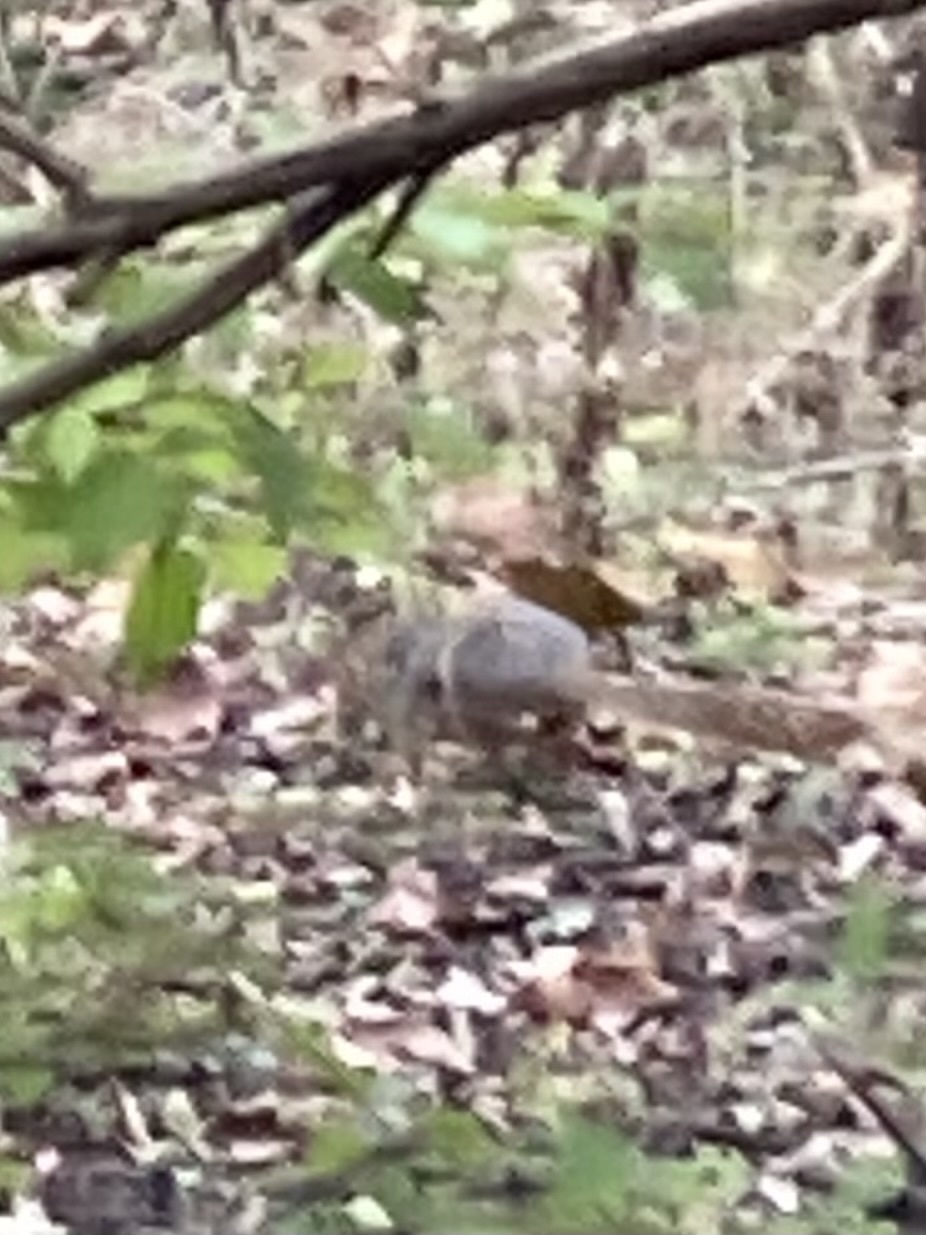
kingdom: Animalia
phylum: Chordata
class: Mammalia
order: Rodentia
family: Sciuridae
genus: Sciurus
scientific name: Sciurus niger
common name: Fox squirrel
